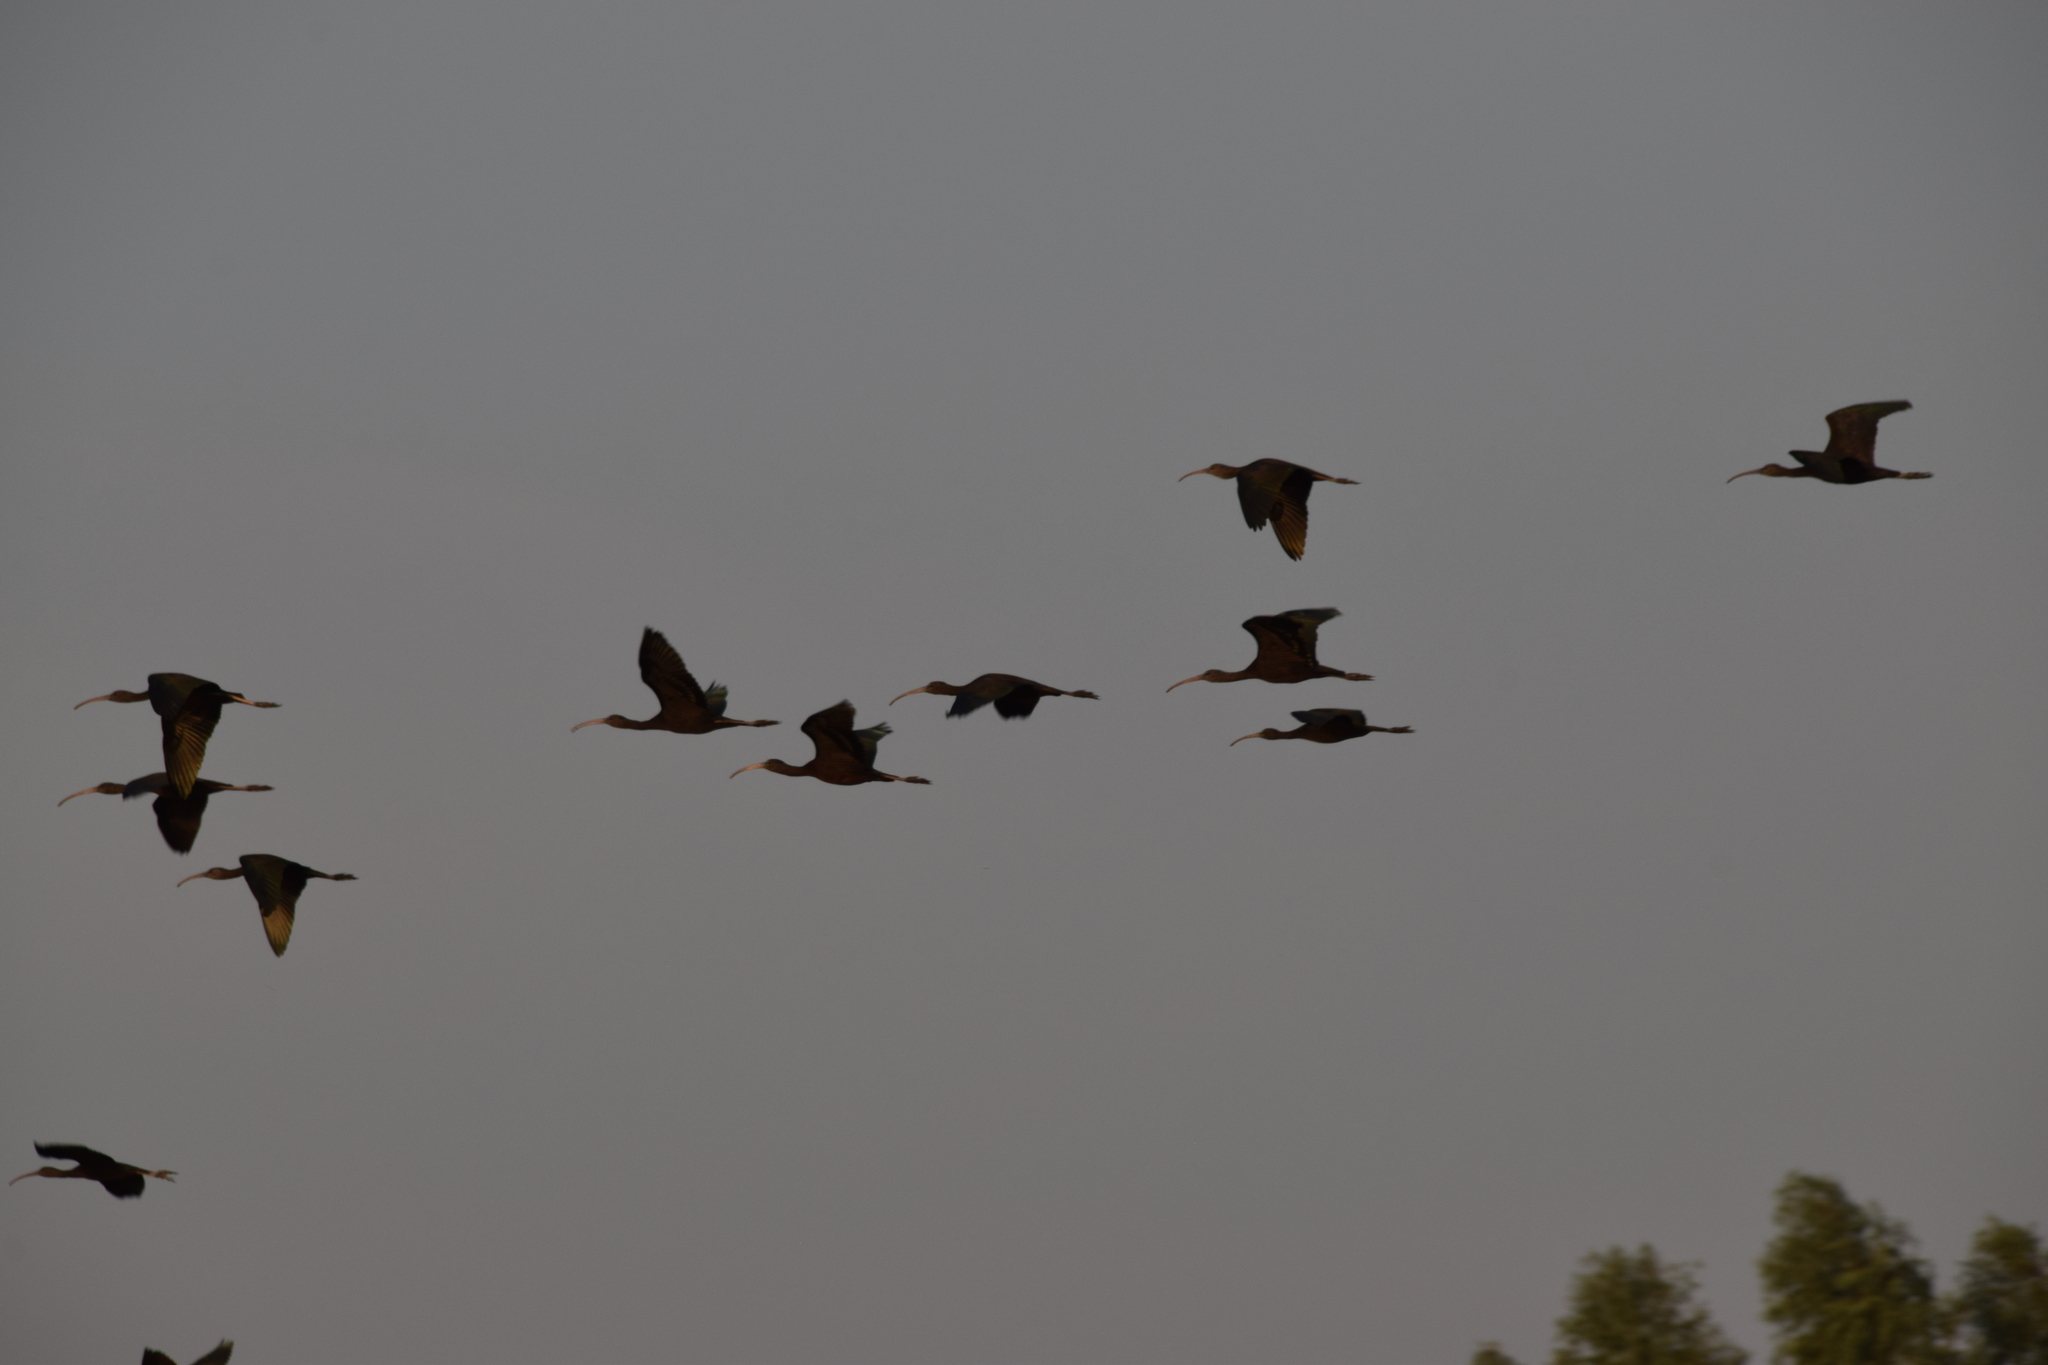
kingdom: Animalia
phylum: Chordata
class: Aves
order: Pelecaniformes
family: Threskiornithidae
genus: Plegadis
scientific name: Plegadis falcinellus
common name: Glossy ibis
